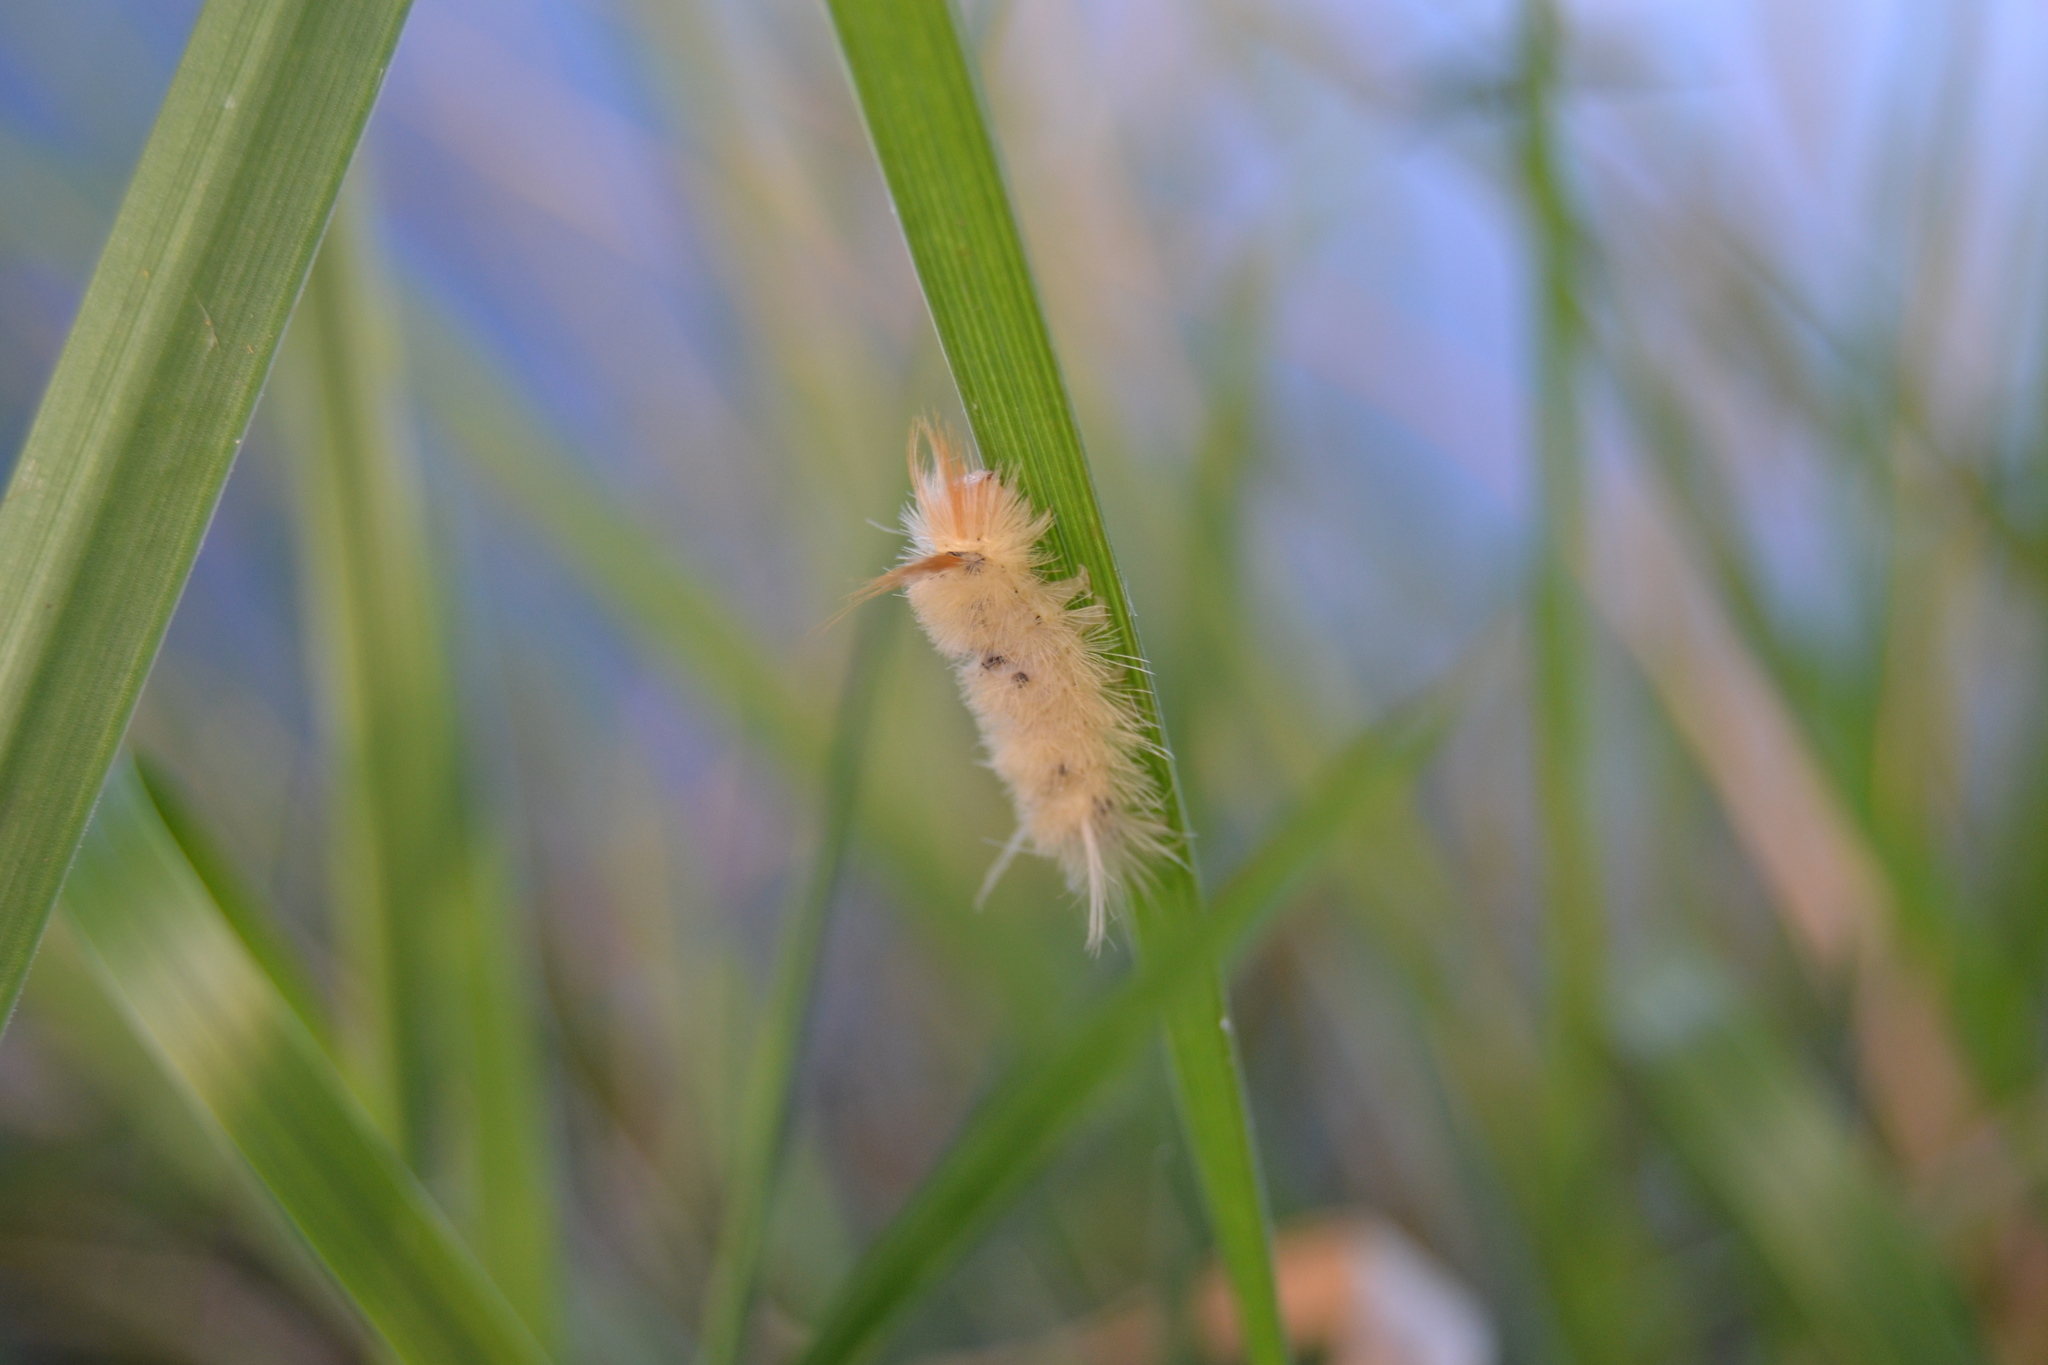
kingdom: Animalia
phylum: Arthropoda
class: Insecta
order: Lepidoptera
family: Erebidae
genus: Halysidota
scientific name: Halysidota harrisii
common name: Sycamore tussock moth
